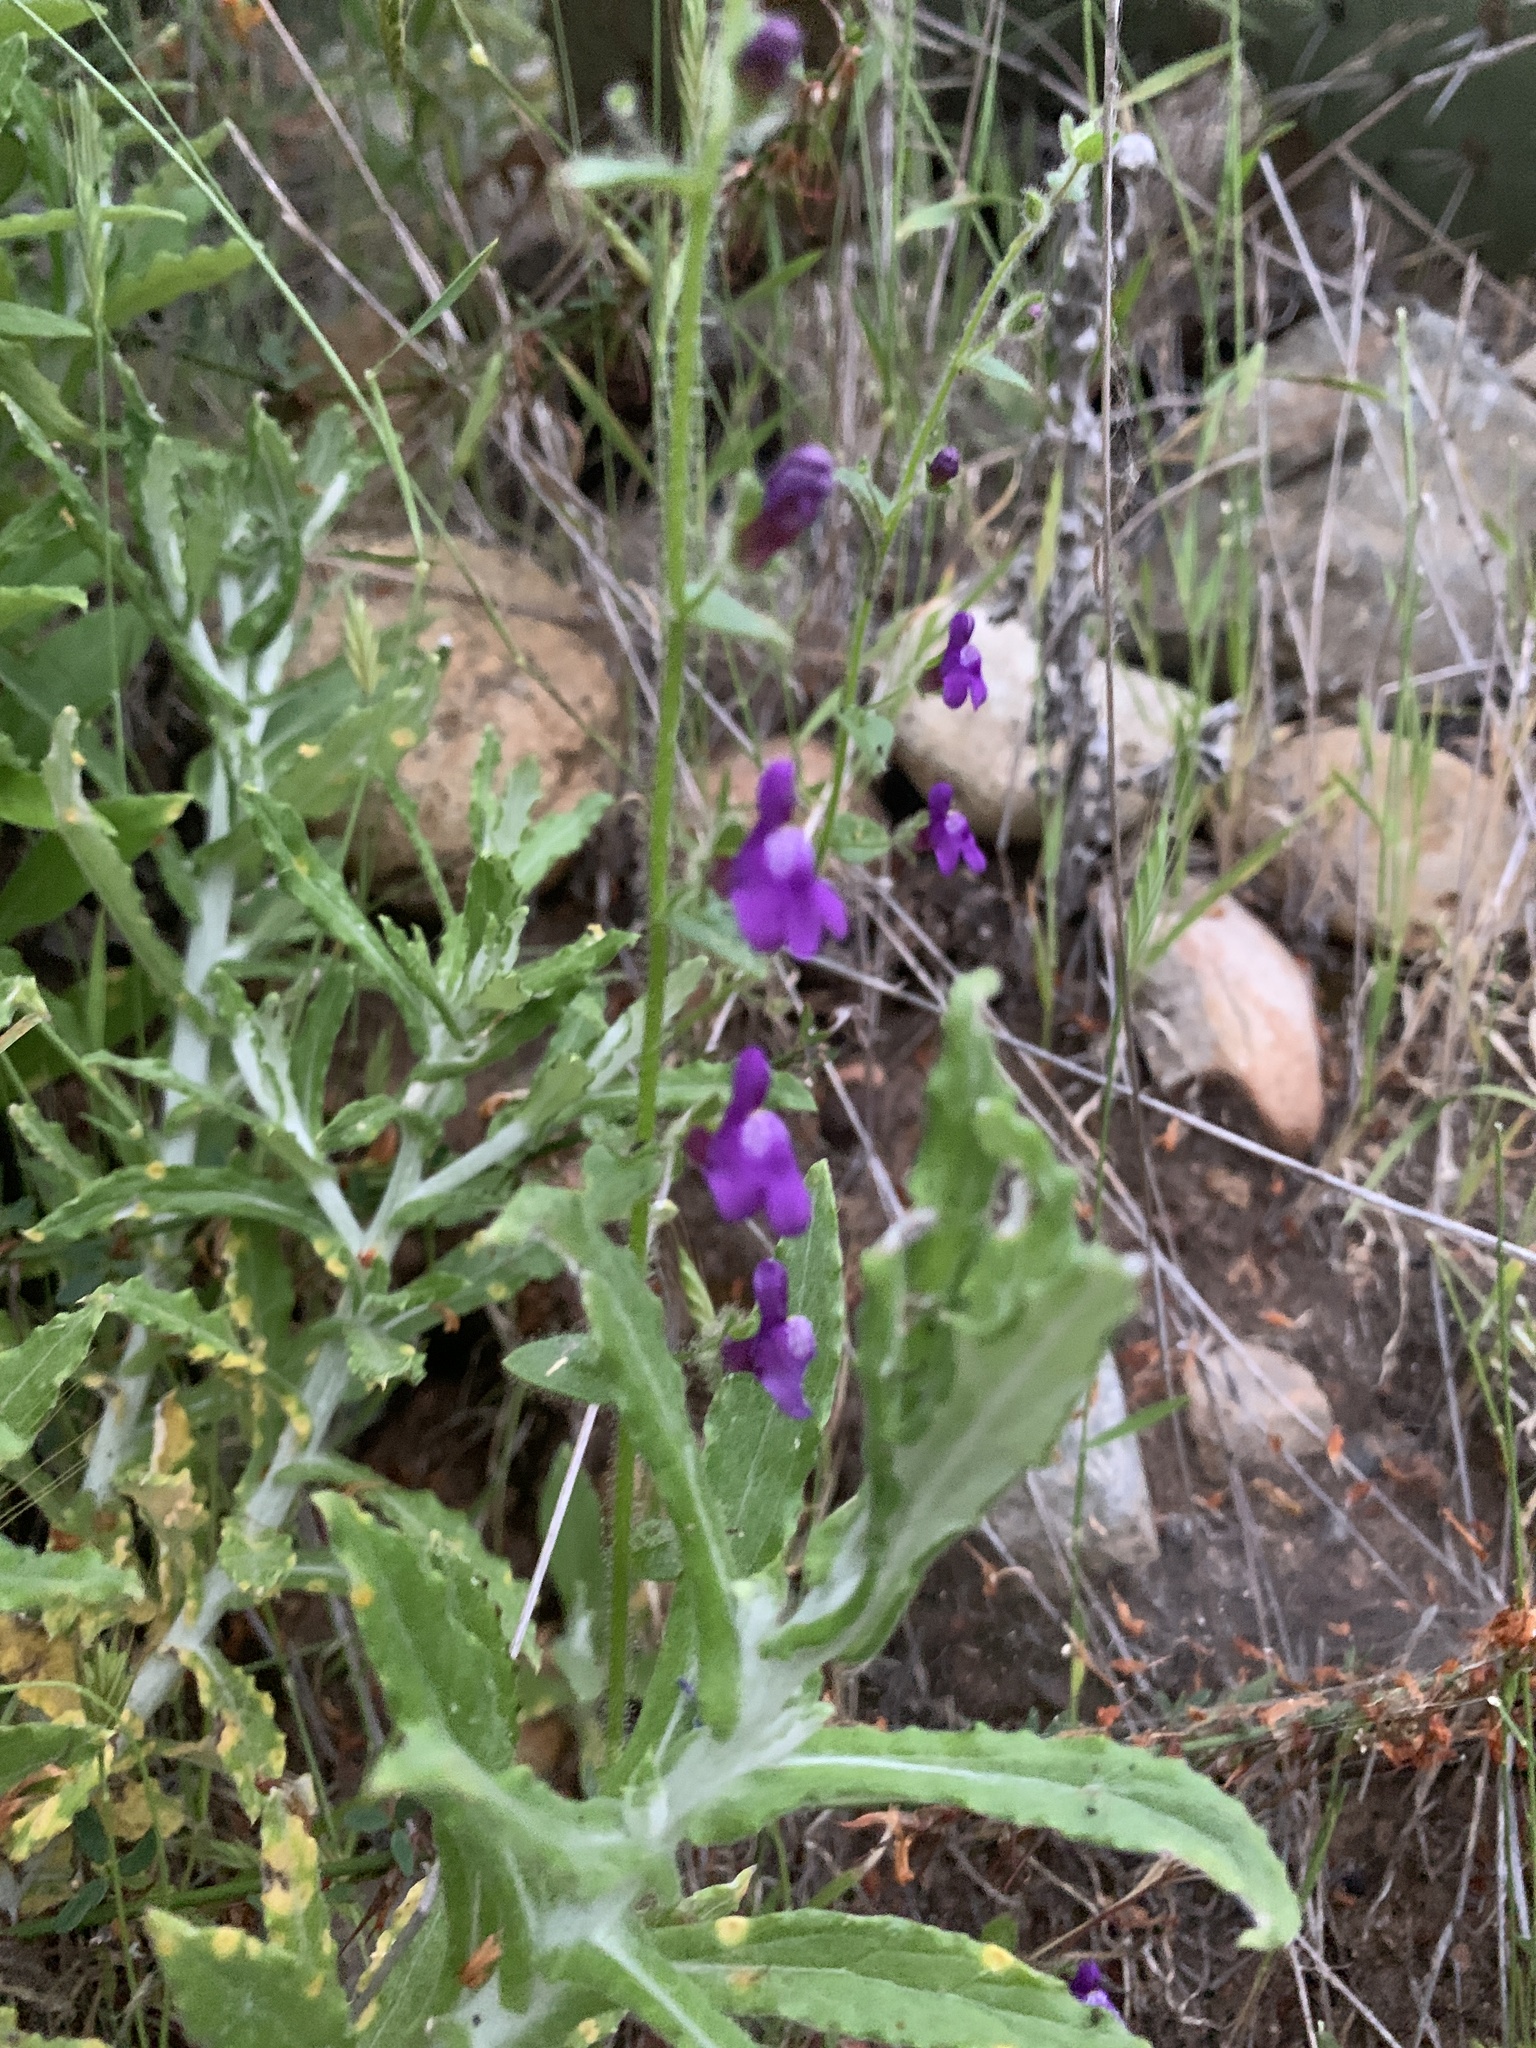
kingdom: Plantae
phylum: Tracheophyta
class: Magnoliopsida
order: Lamiales
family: Plantaginaceae
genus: Sairocarpus
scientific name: Sairocarpus nuttallianus
